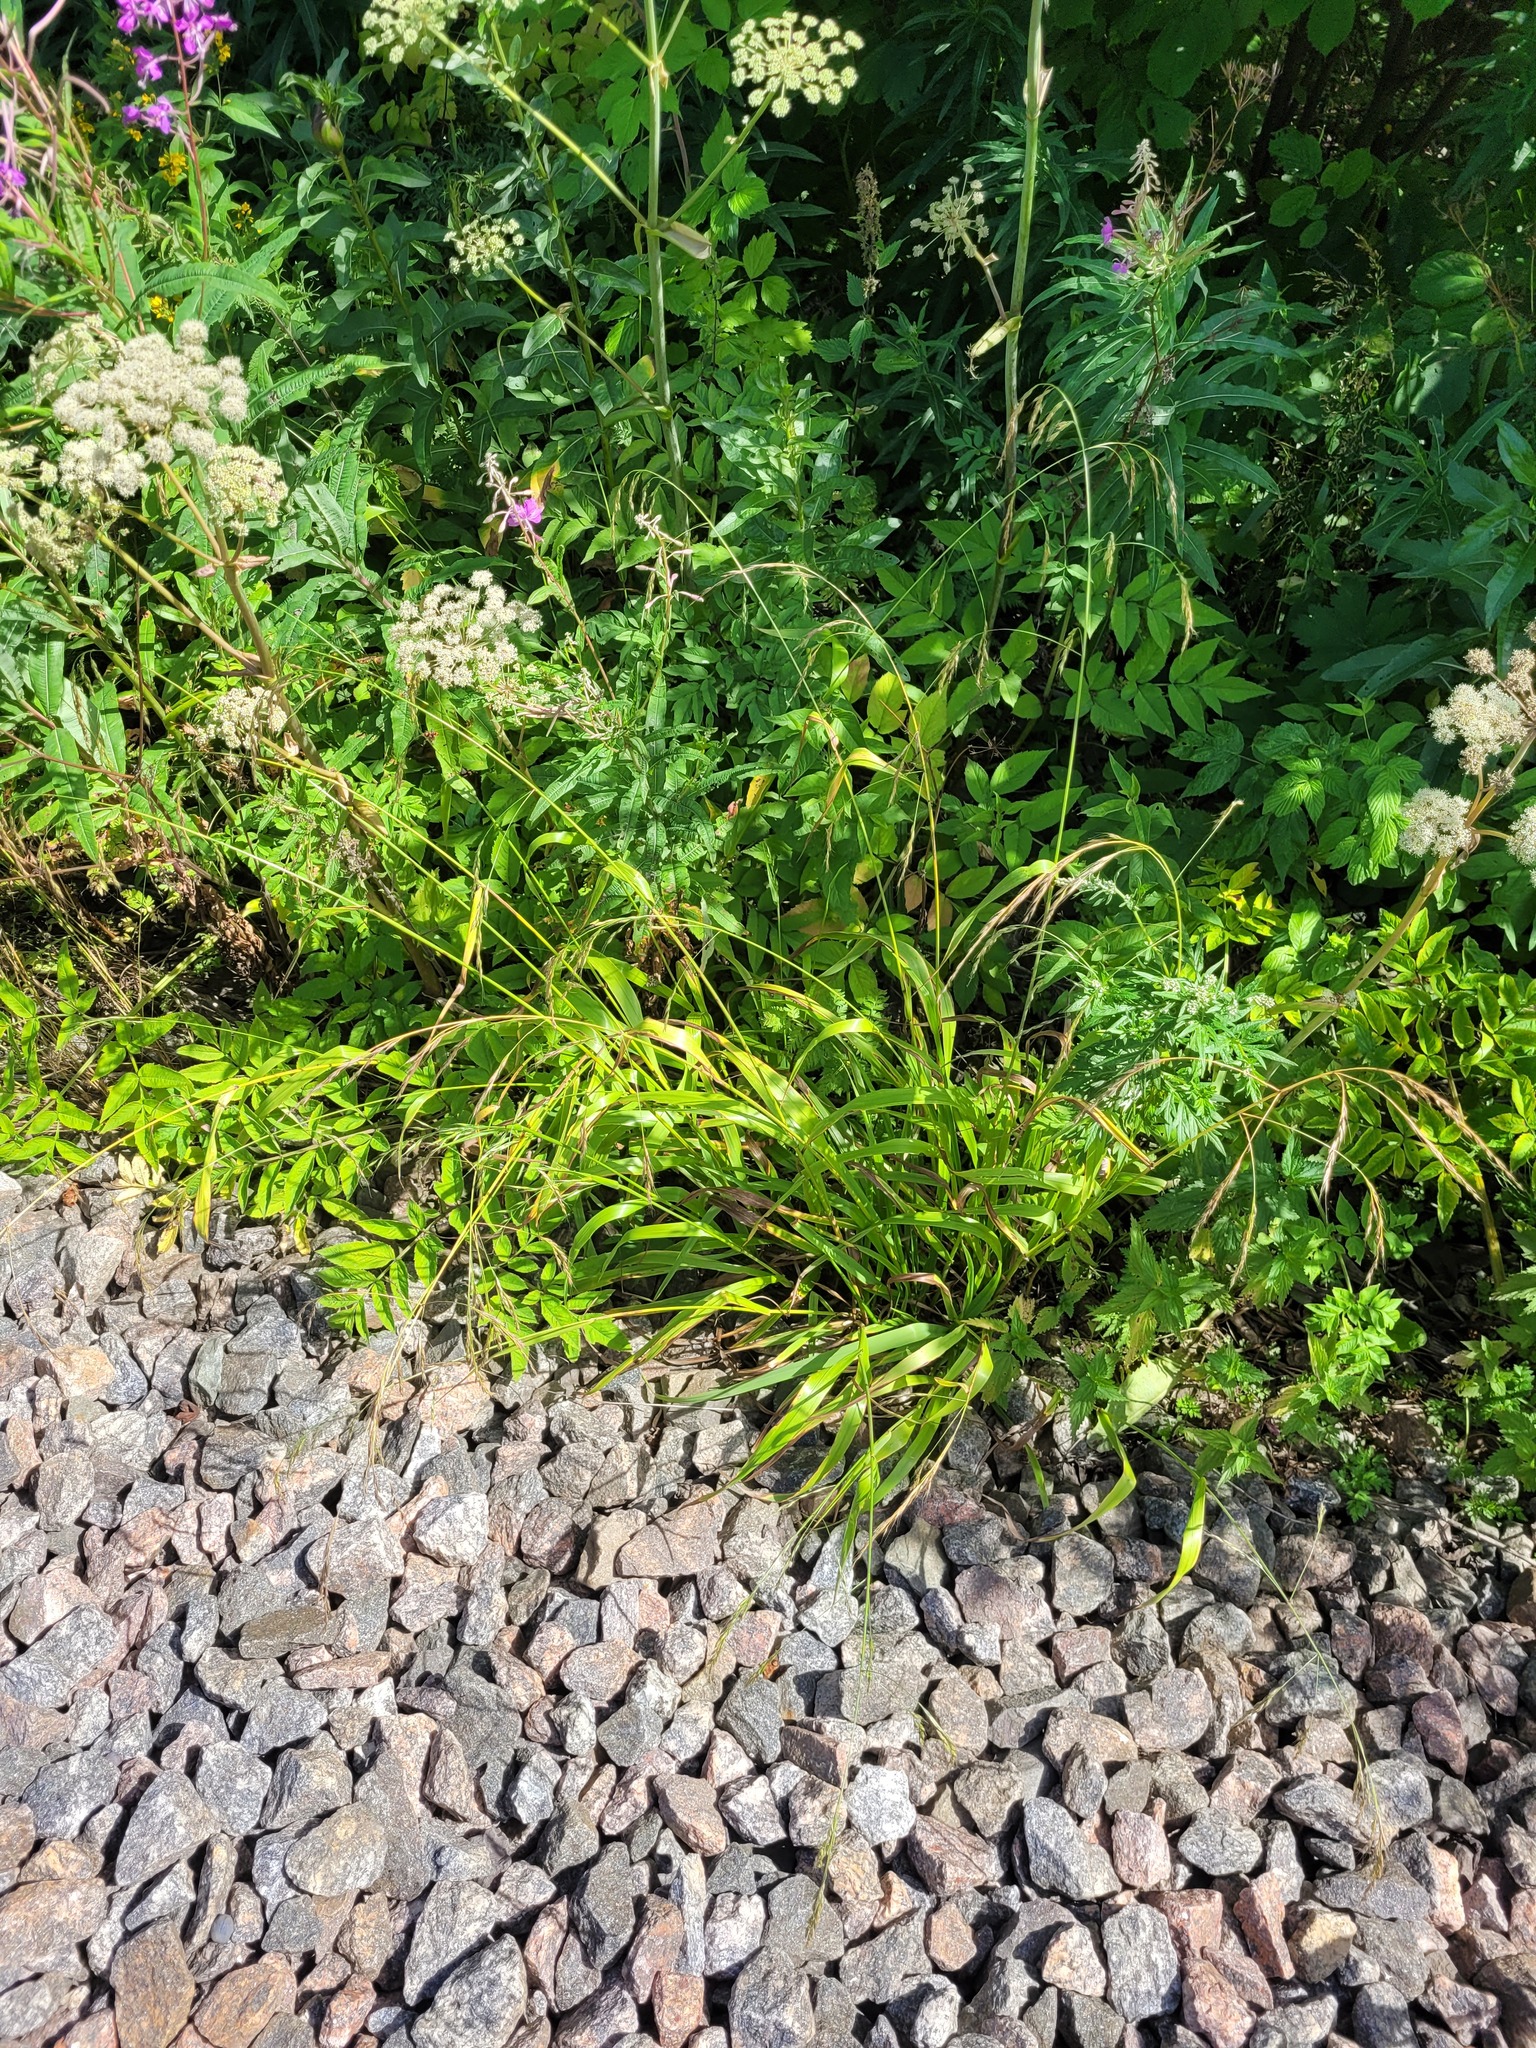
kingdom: Plantae
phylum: Tracheophyta
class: Liliopsida
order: Poales
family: Poaceae
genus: Lolium
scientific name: Lolium giganteum
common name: Giant fescue
